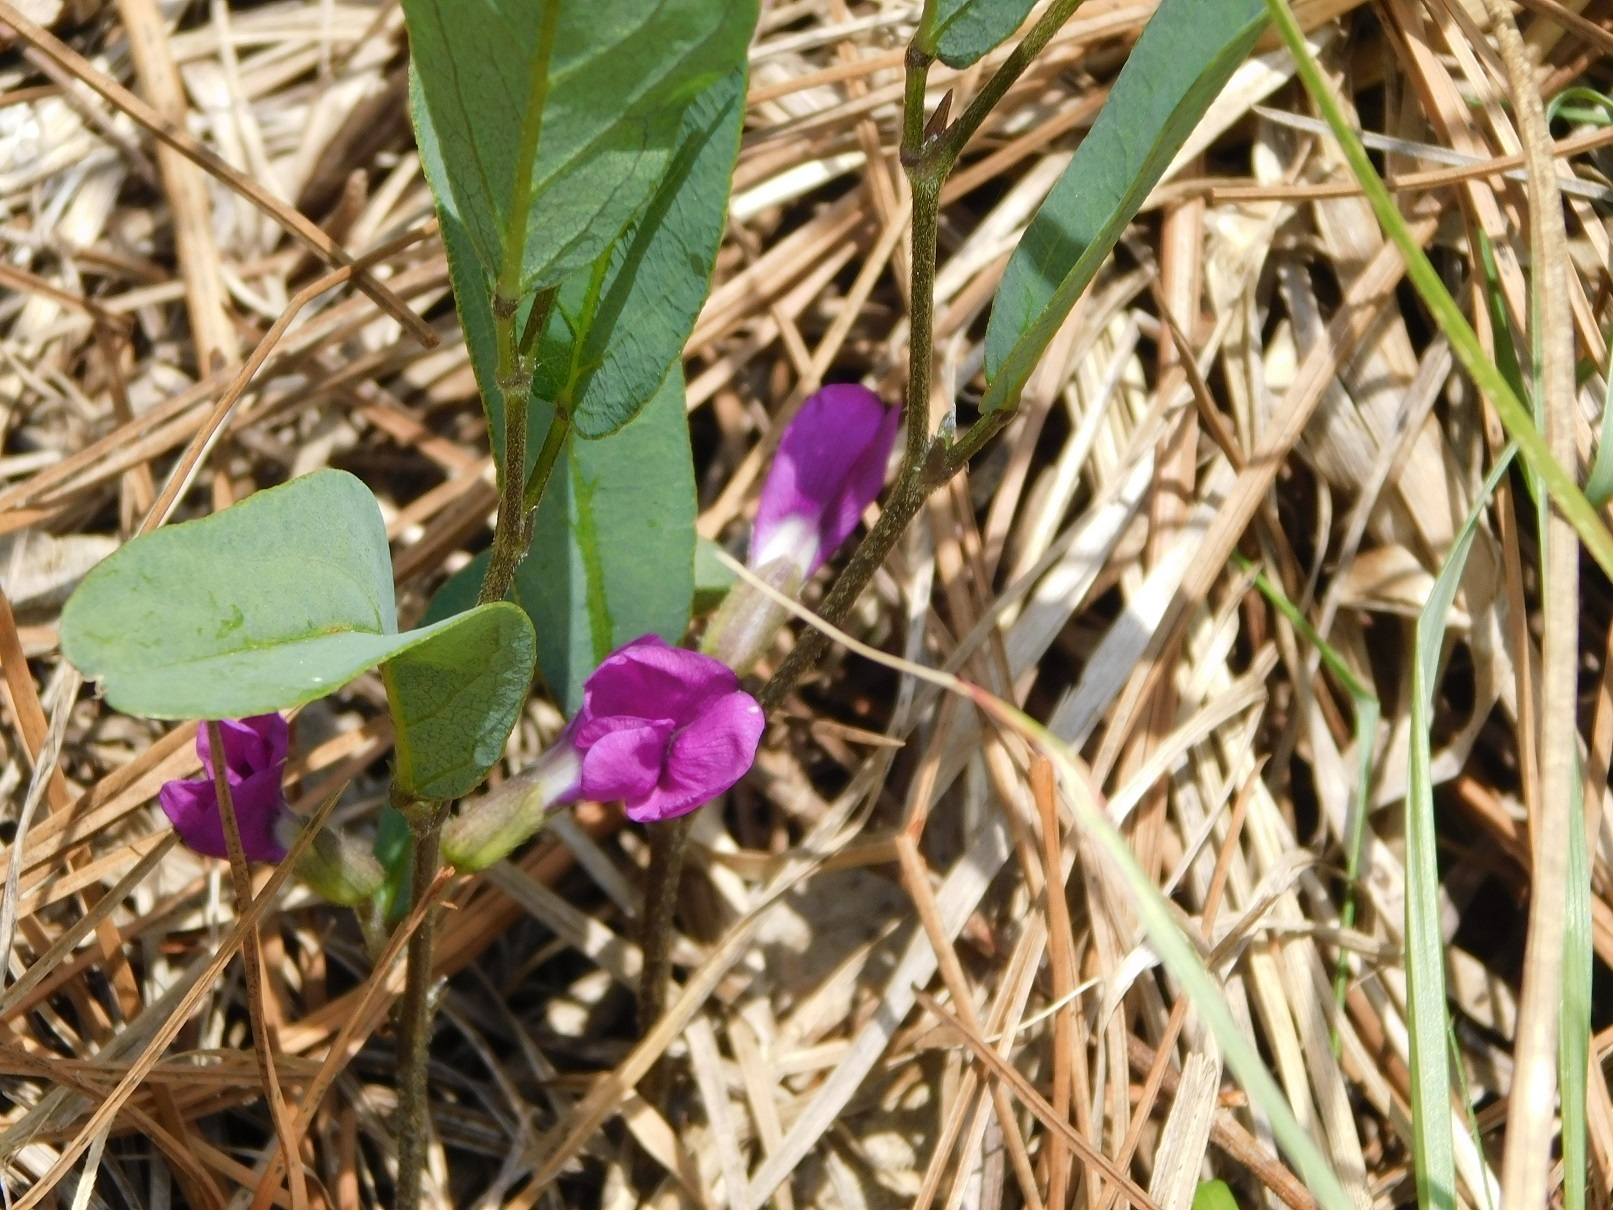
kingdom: Plantae
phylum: Tracheophyta
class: Magnoliopsida
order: Fabales
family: Fabaceae
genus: Cologania
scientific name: Cologania procumbens
